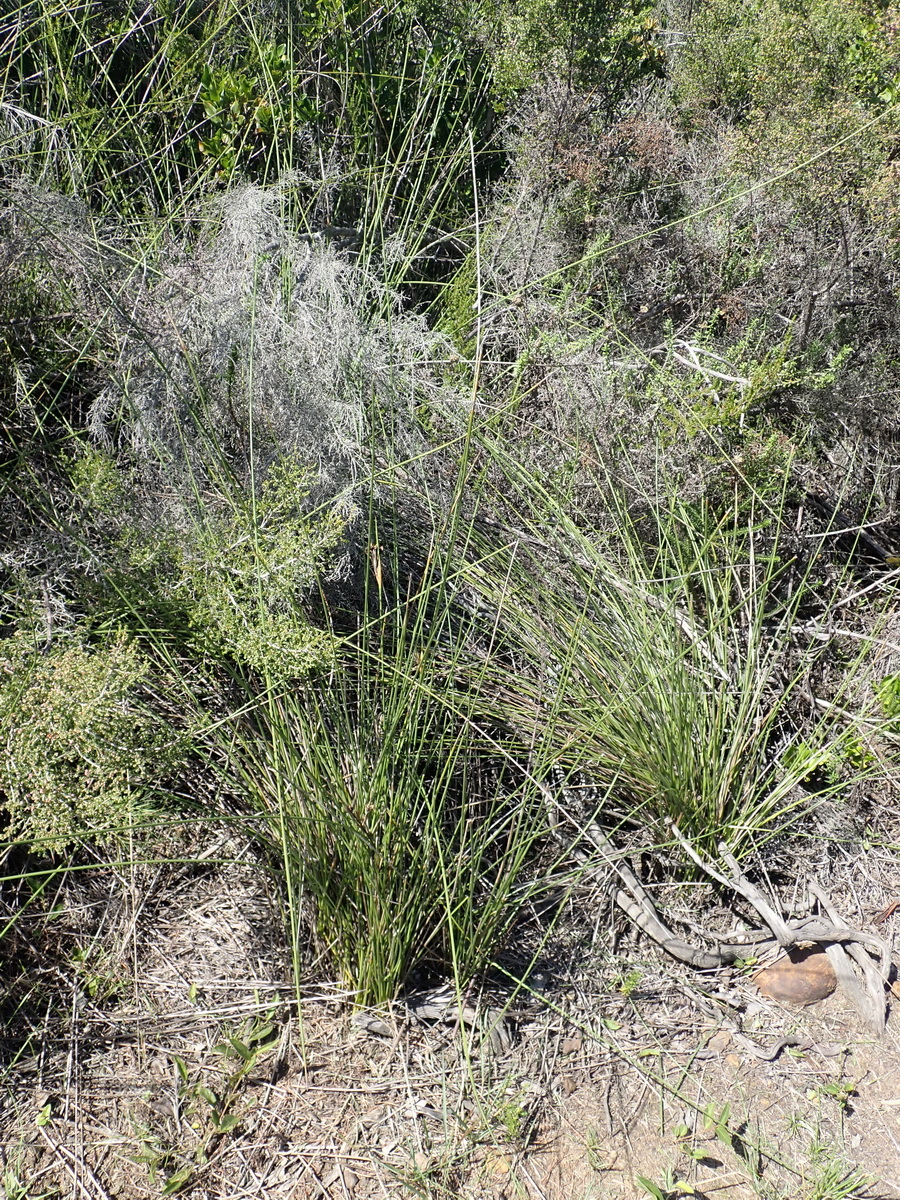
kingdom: Plantae
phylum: Tracheophyta
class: Liliopsida
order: Asparagales
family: Iridaceae
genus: Bobartia
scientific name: Bobartia aphylla
